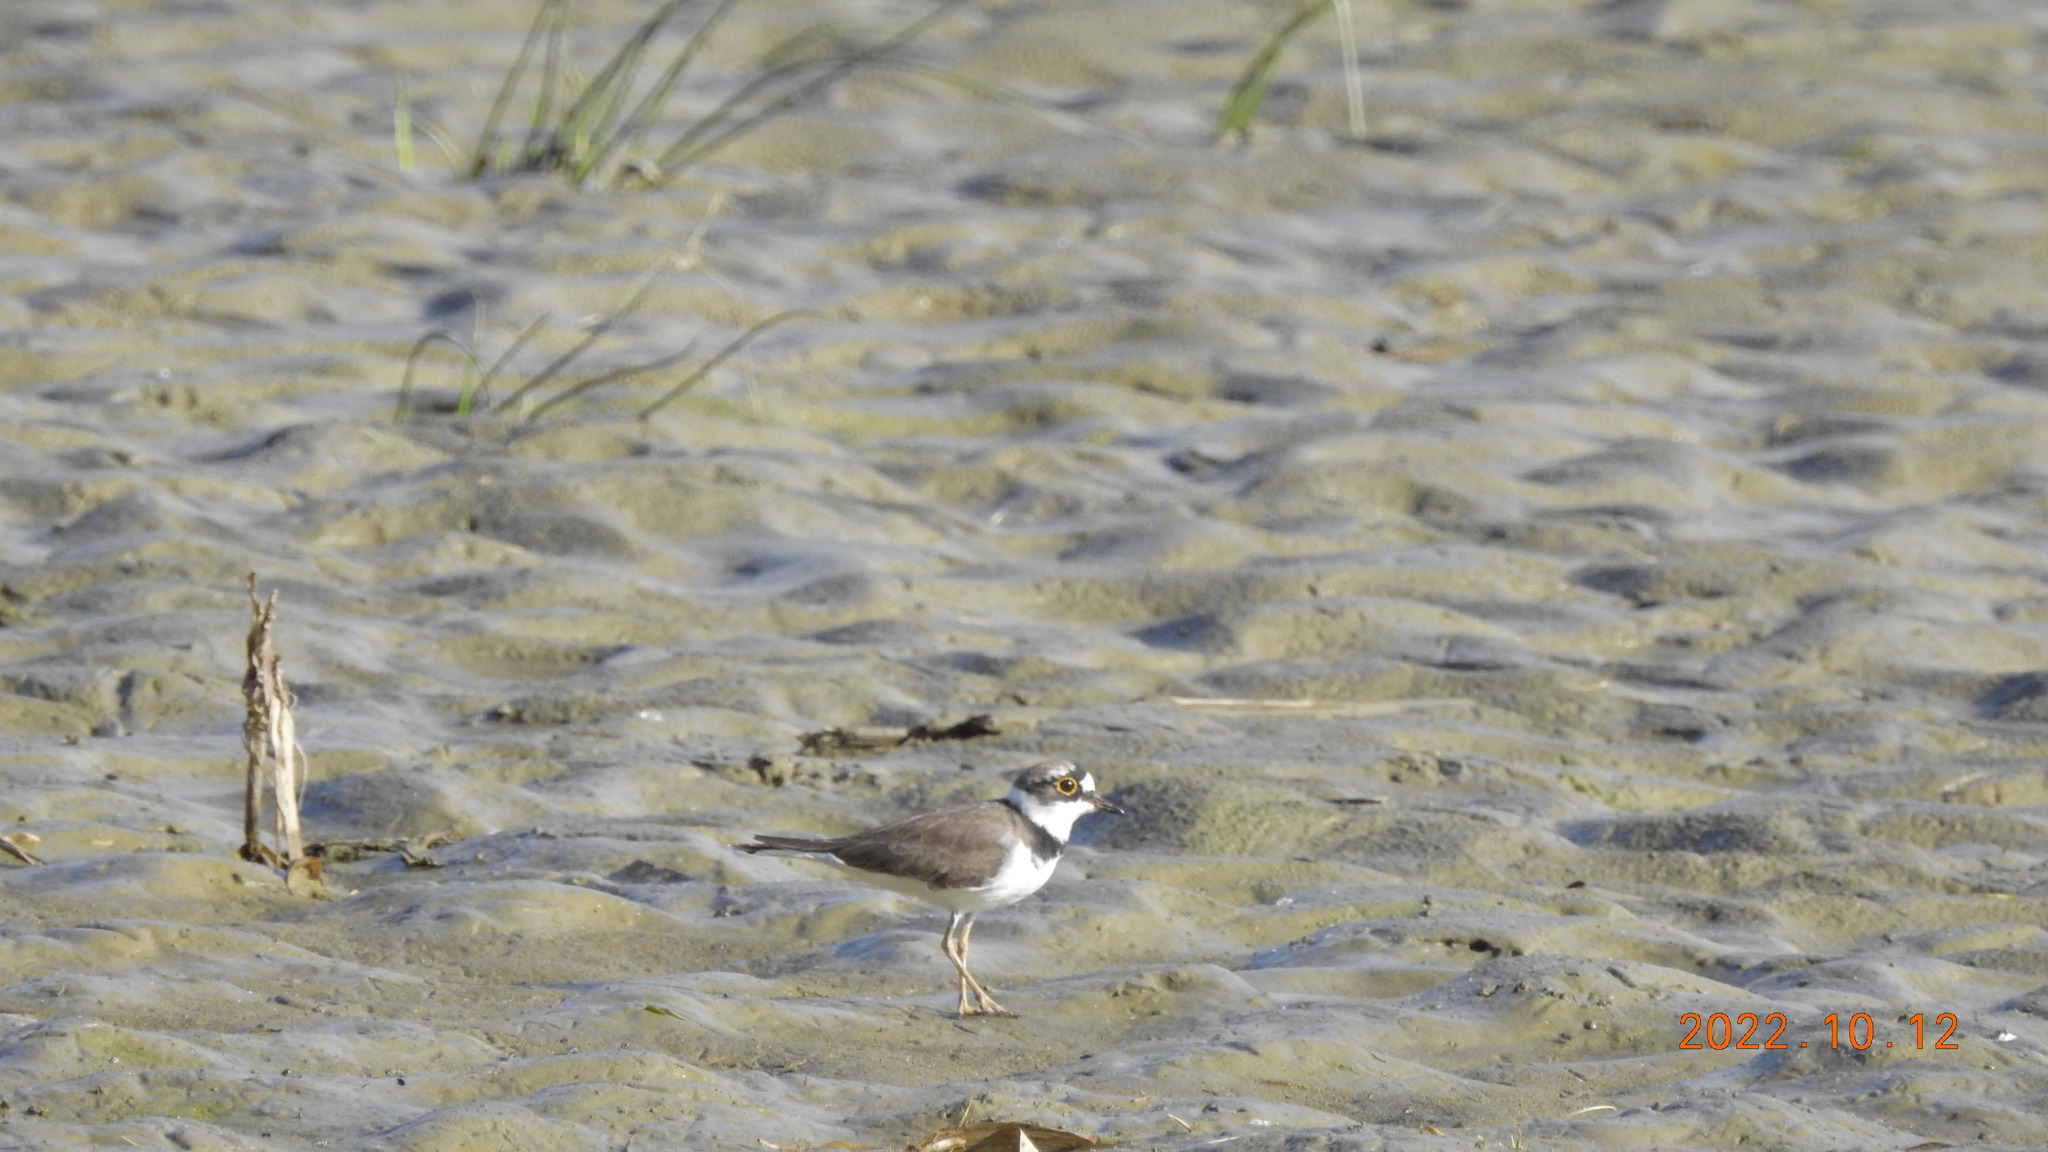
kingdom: Animalia
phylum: Chordata
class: Aves
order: Charadriiformes
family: Charadriidae
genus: Charadrius
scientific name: Charadrius dubius
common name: Little ringed plover
